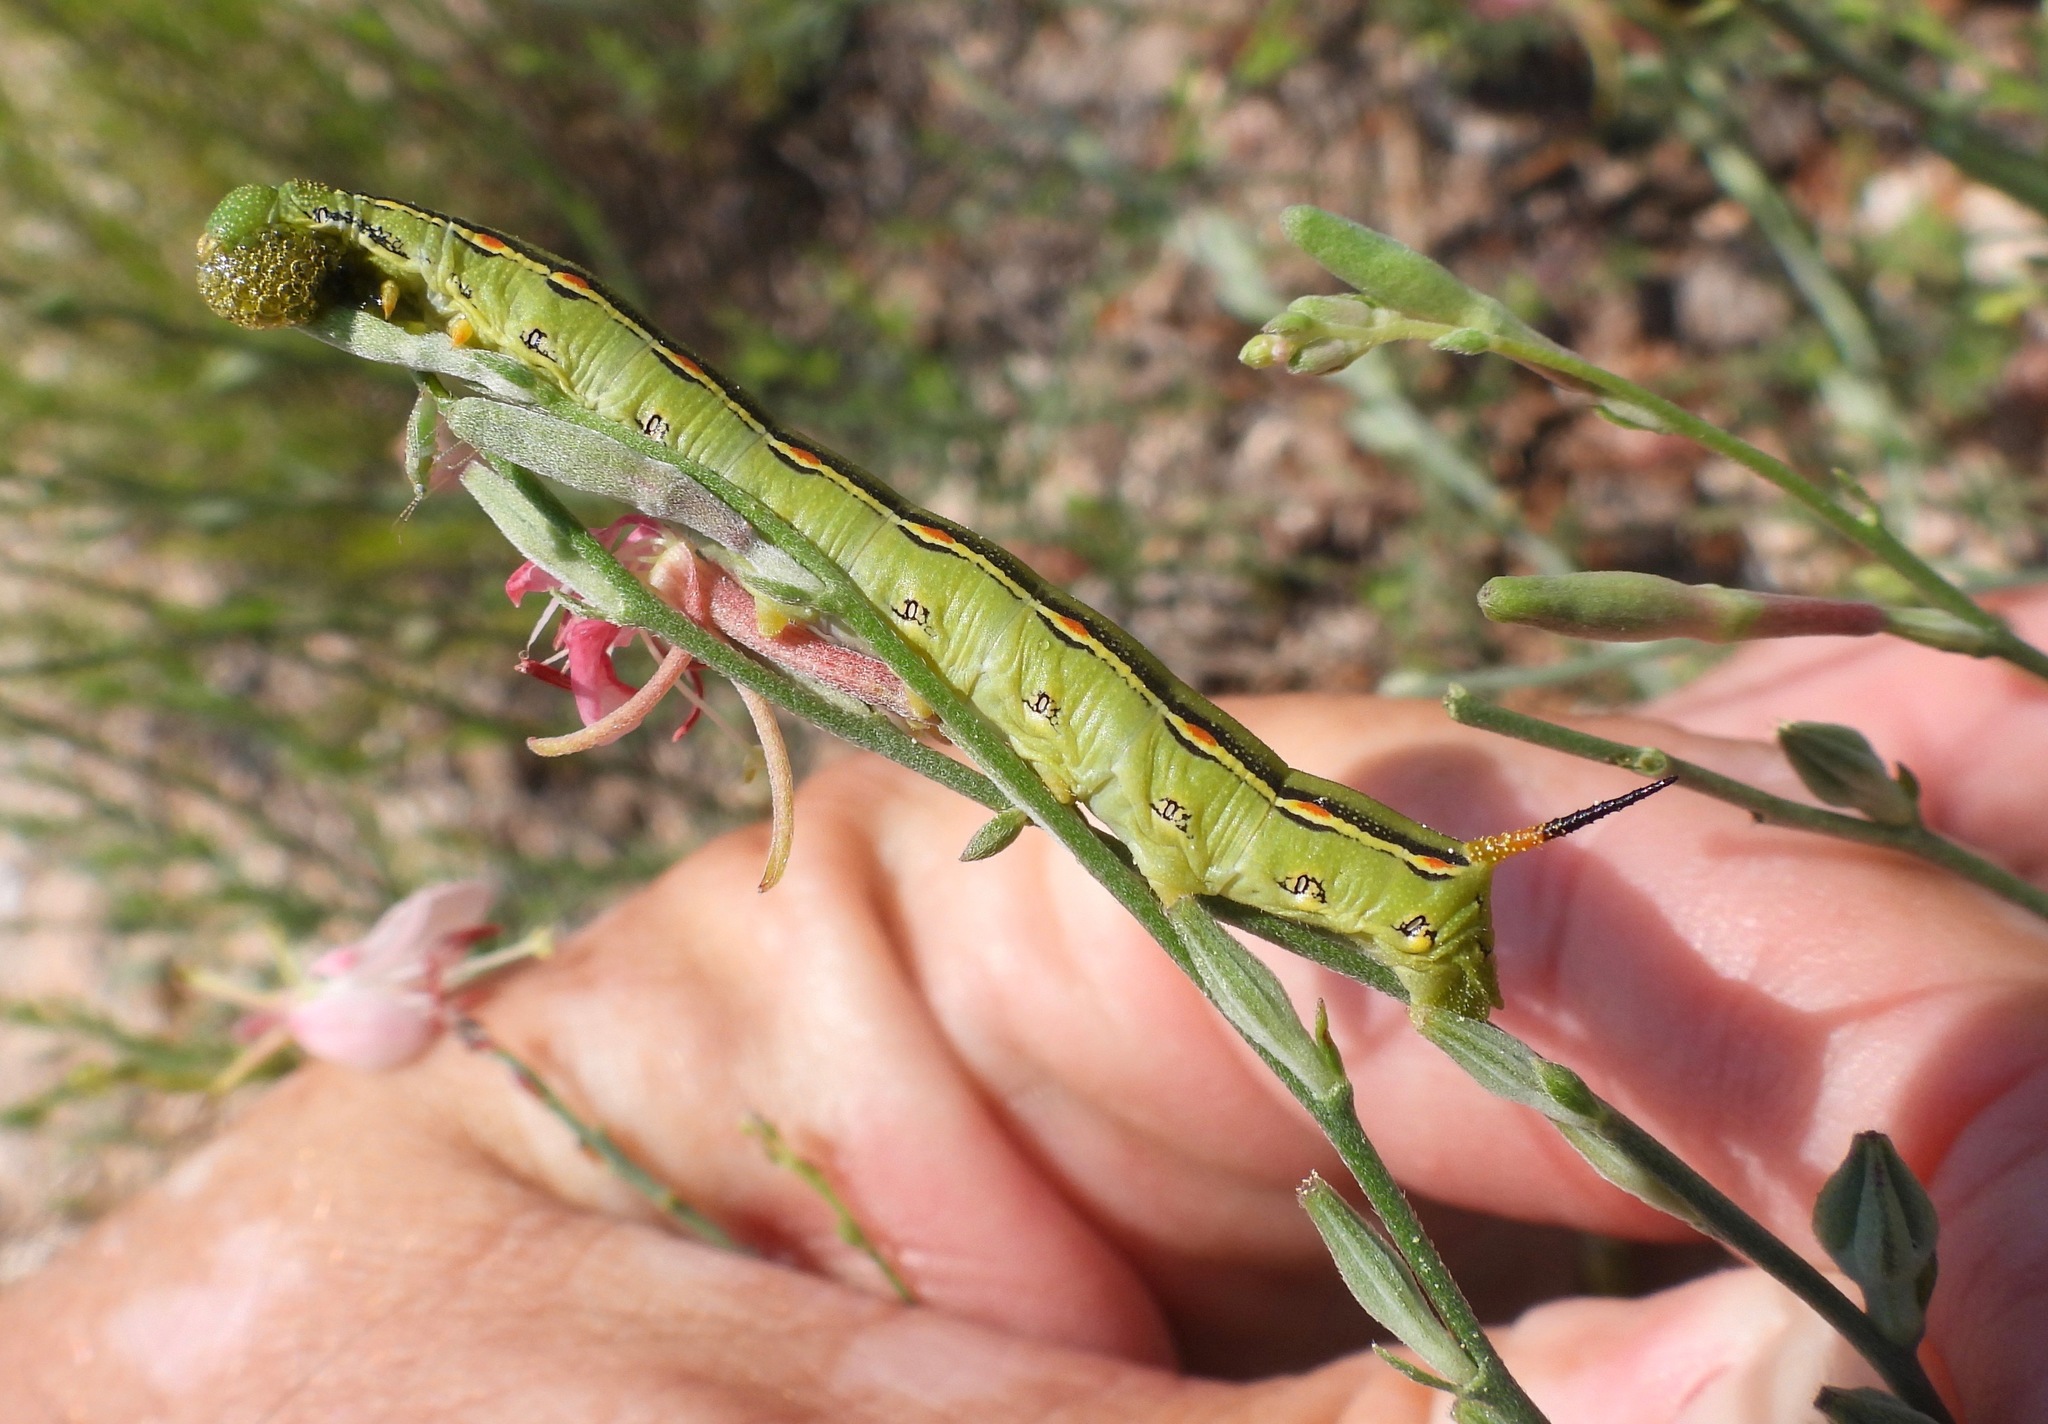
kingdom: Animalia
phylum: Arthropoda
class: Insecta
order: Lepidoptera
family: Sphingidae
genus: Hyles
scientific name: Hyles lineata
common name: White-lined sphinx
